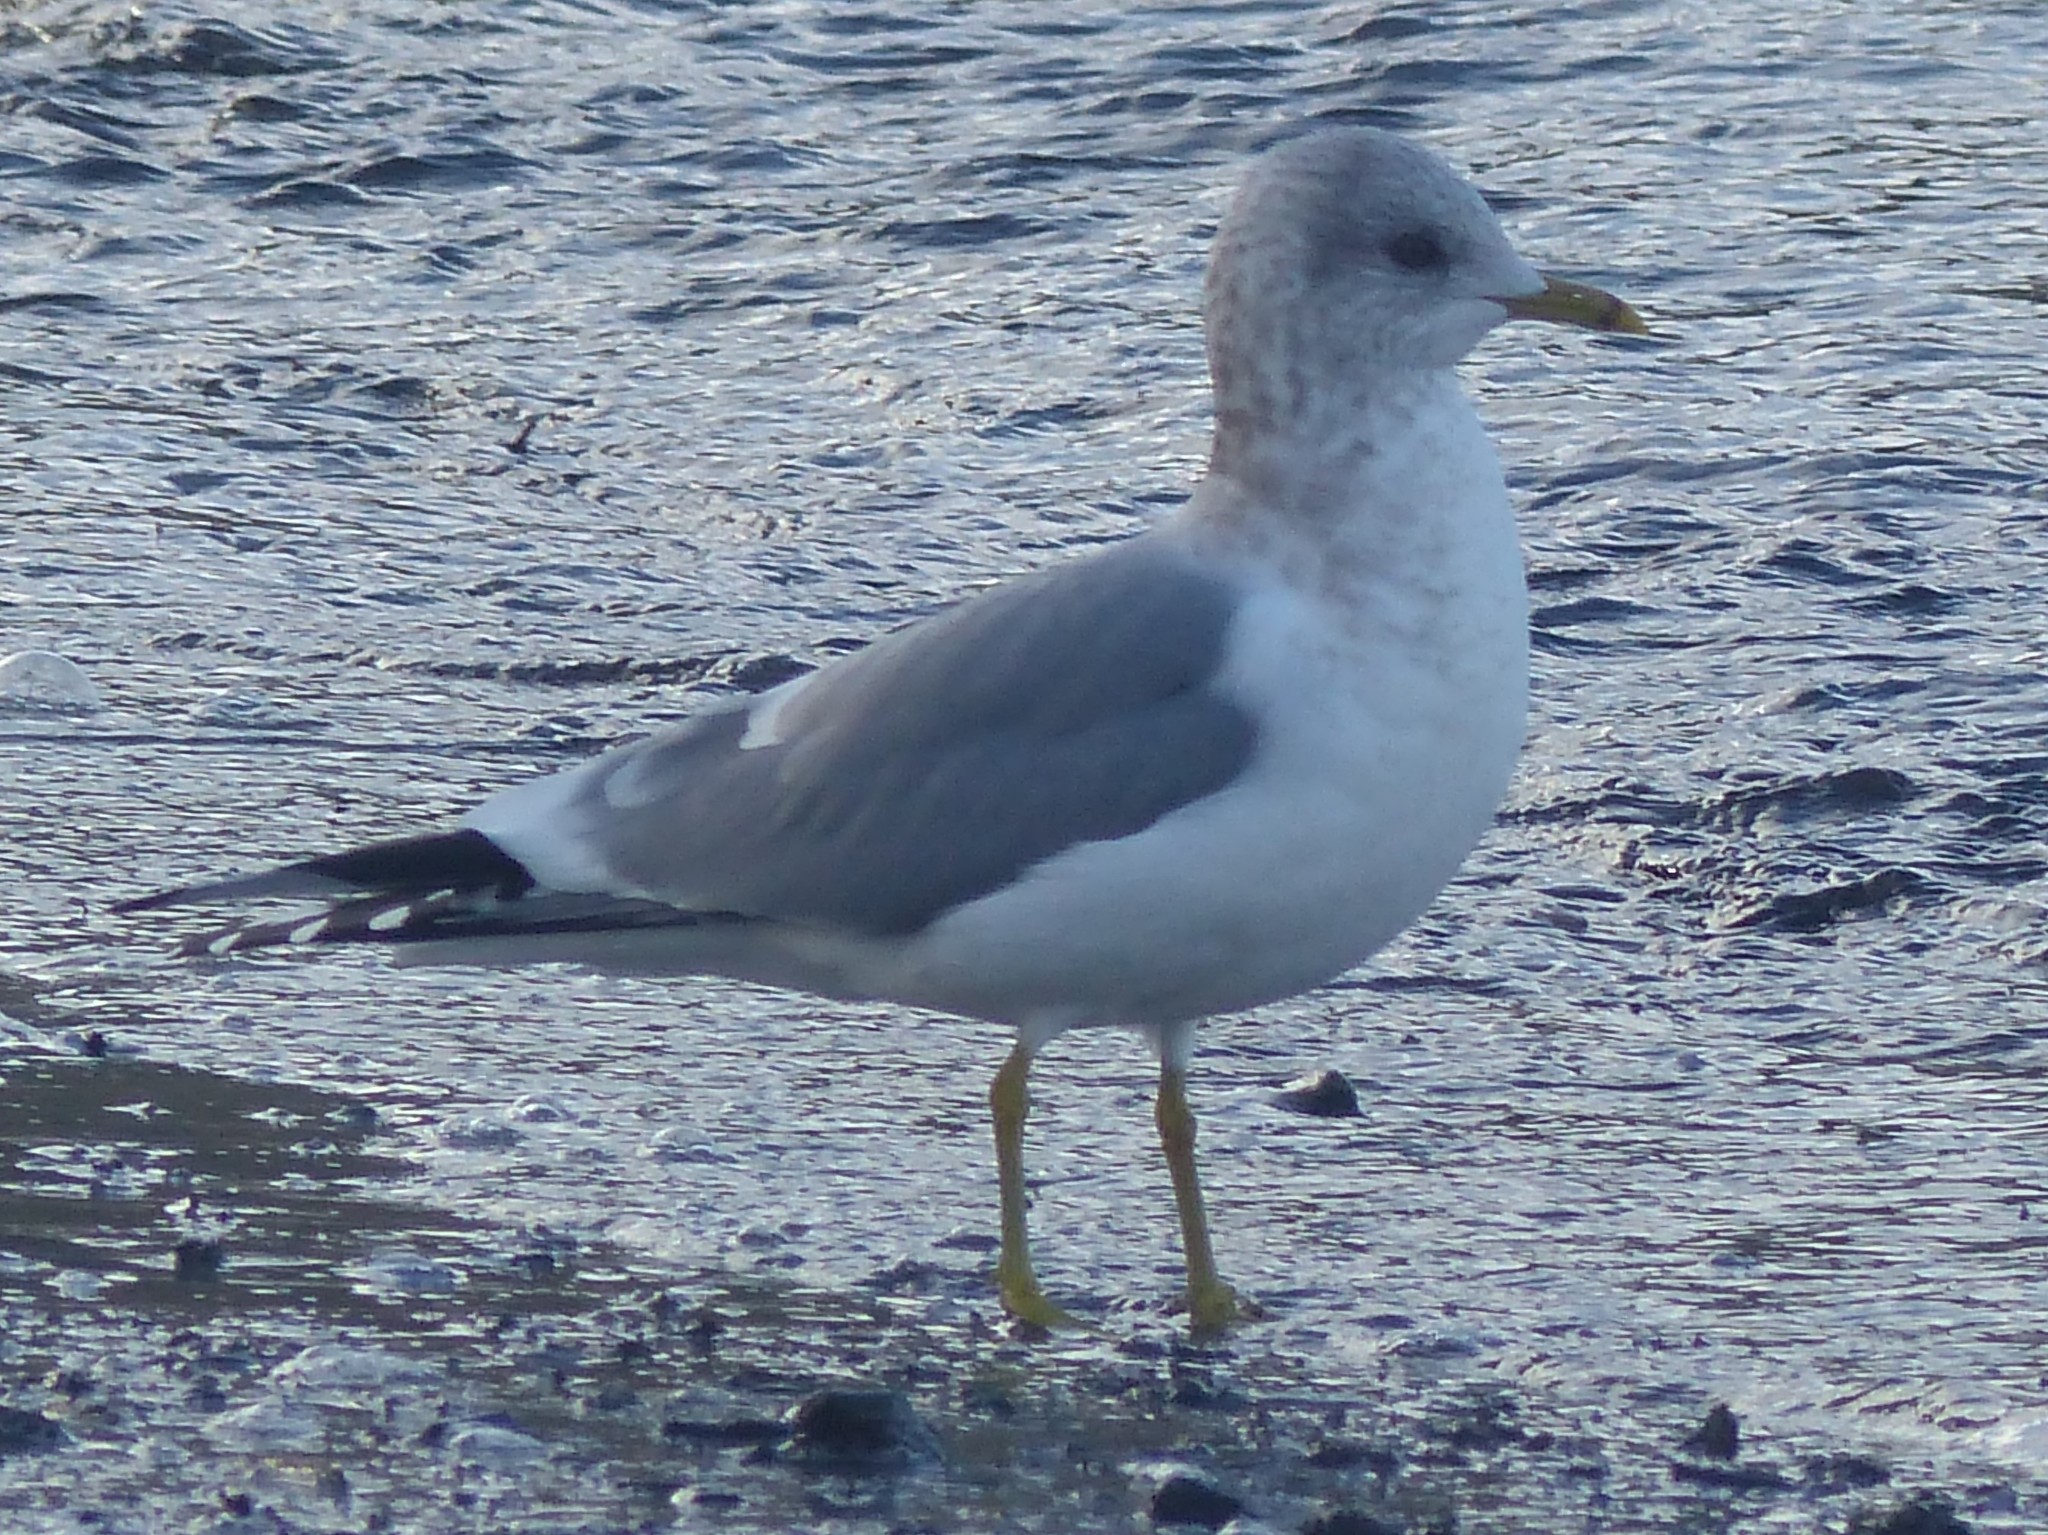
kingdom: Animalia
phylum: Chordata
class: Aves
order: Charadriiformes
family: Laridae
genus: Larus
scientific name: Larus brachyrhynchus
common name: Short-billed gull
